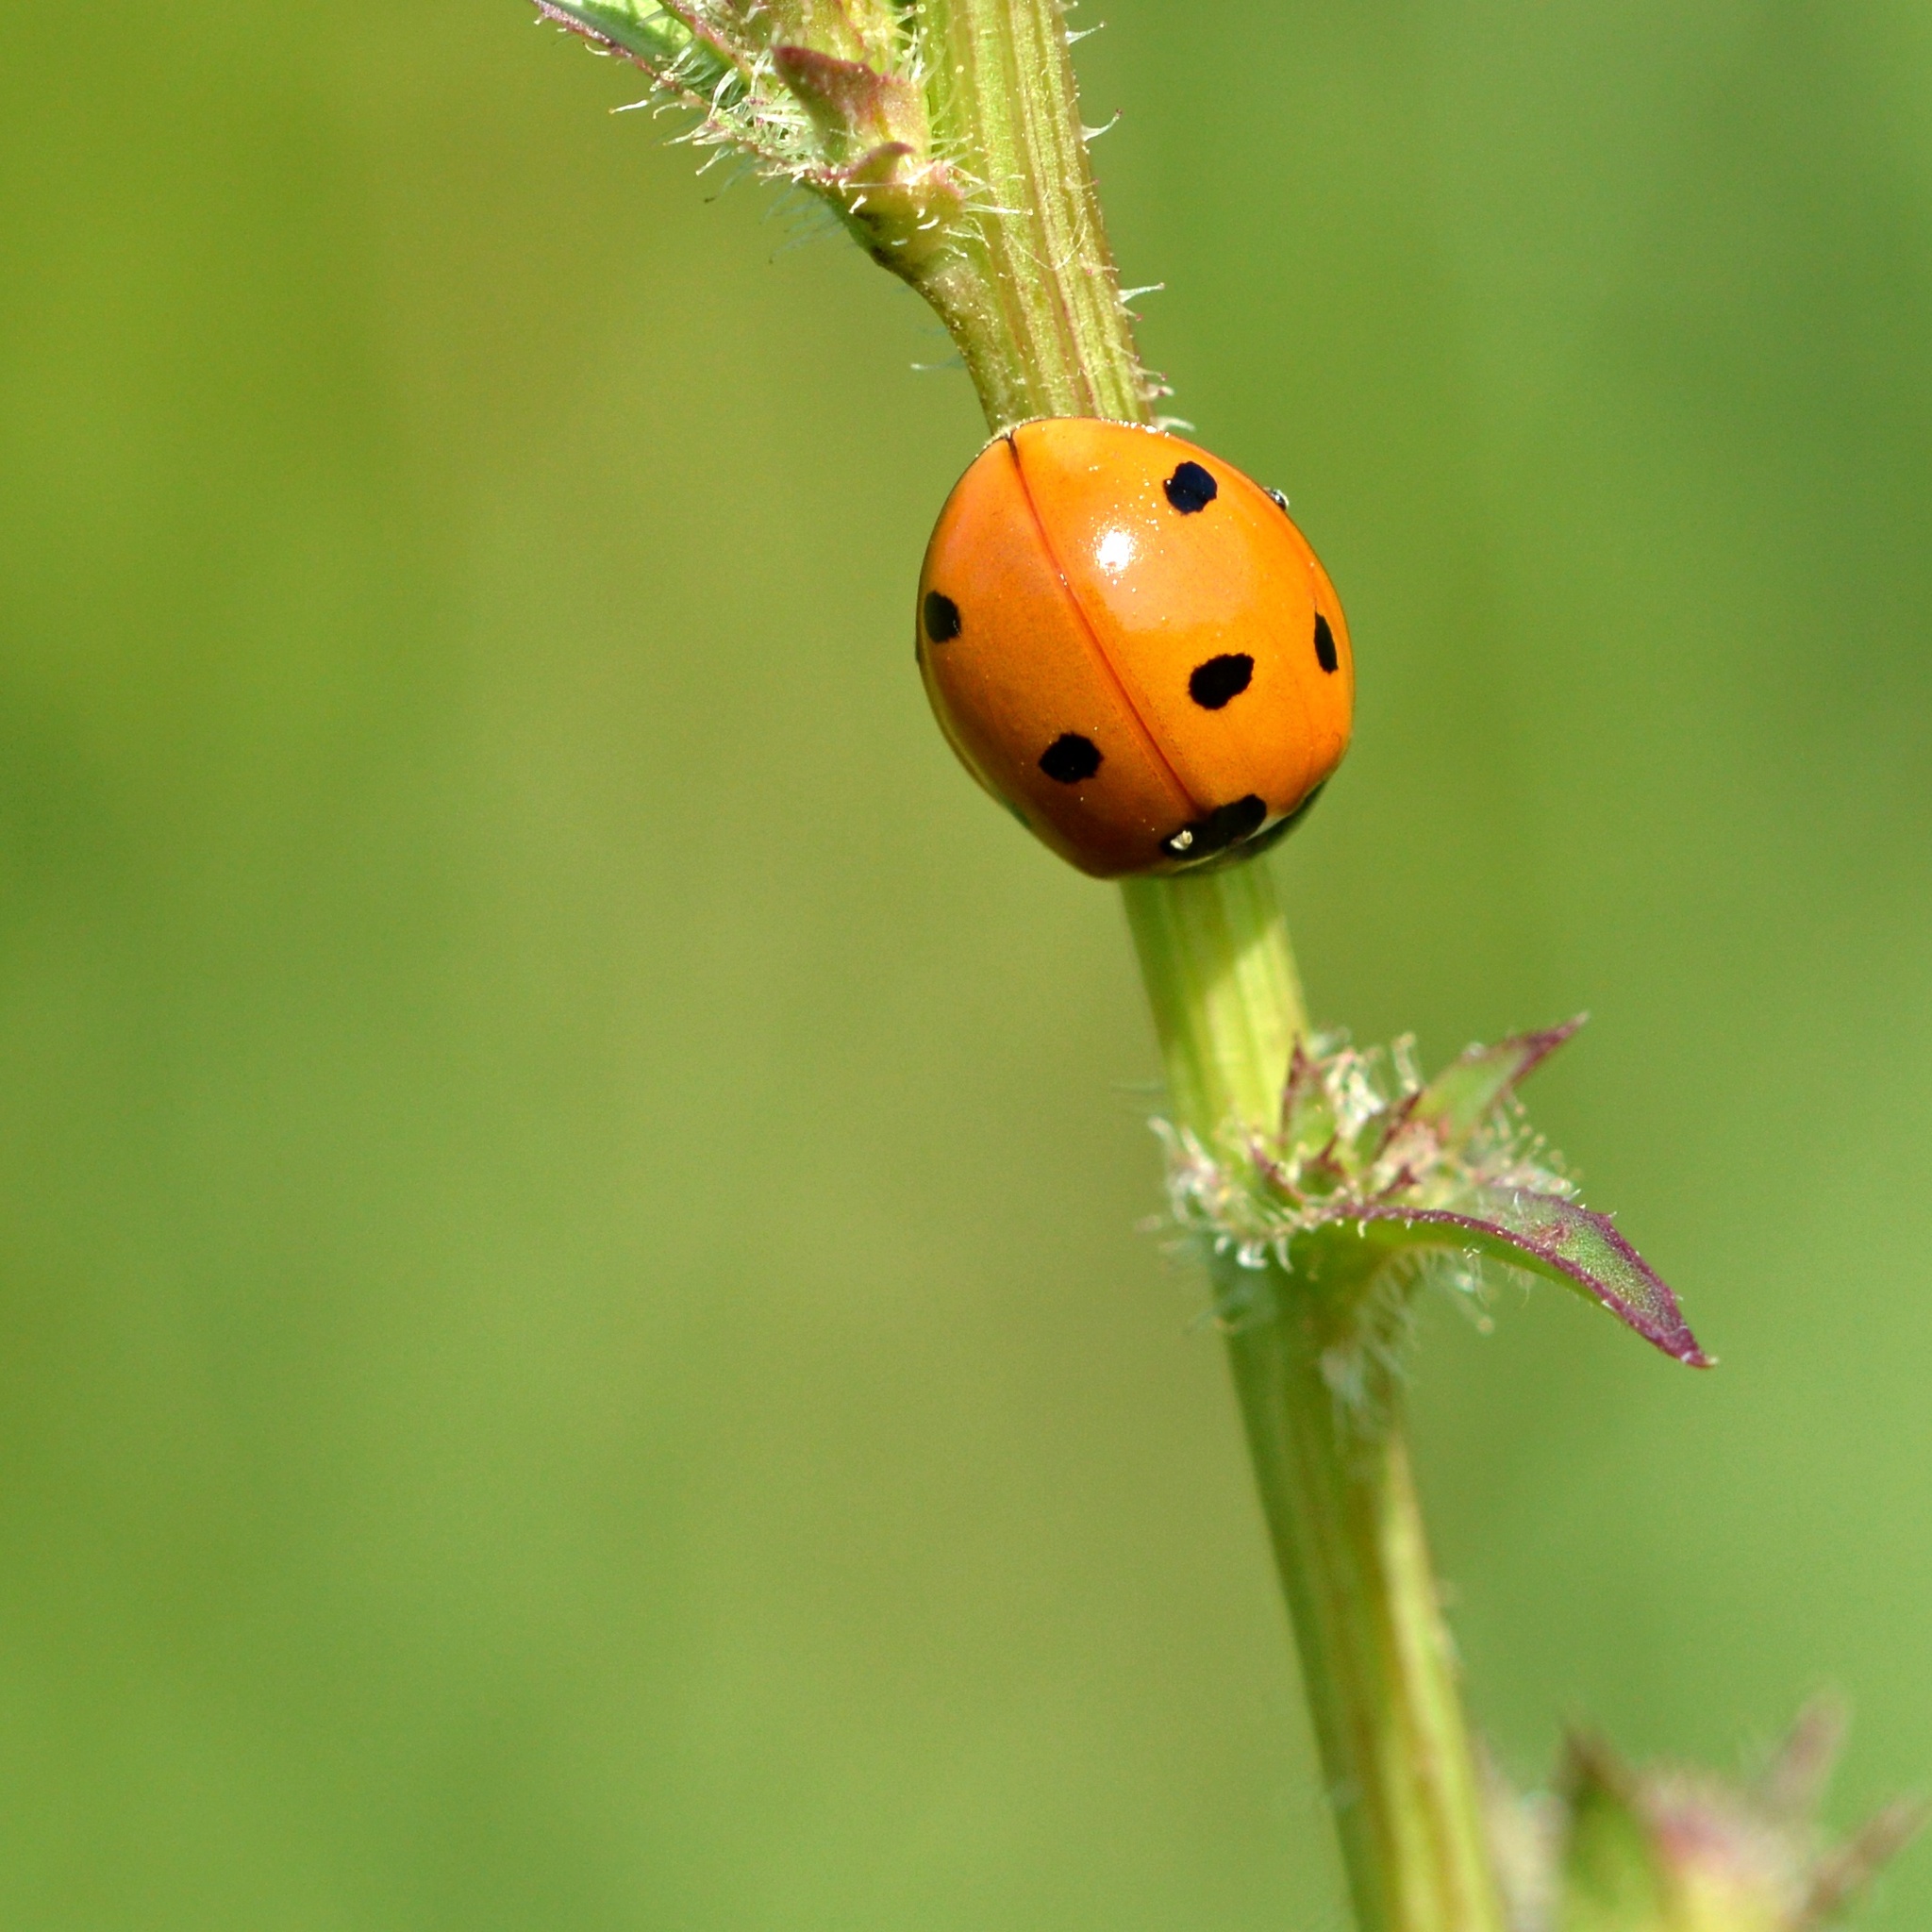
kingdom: Animalia
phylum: Arthropoda
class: Insecta
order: Coleoptera
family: Coccinellidae
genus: Coccinella
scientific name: Coccinella septempunctata
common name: Sevenspotted lady beetle
